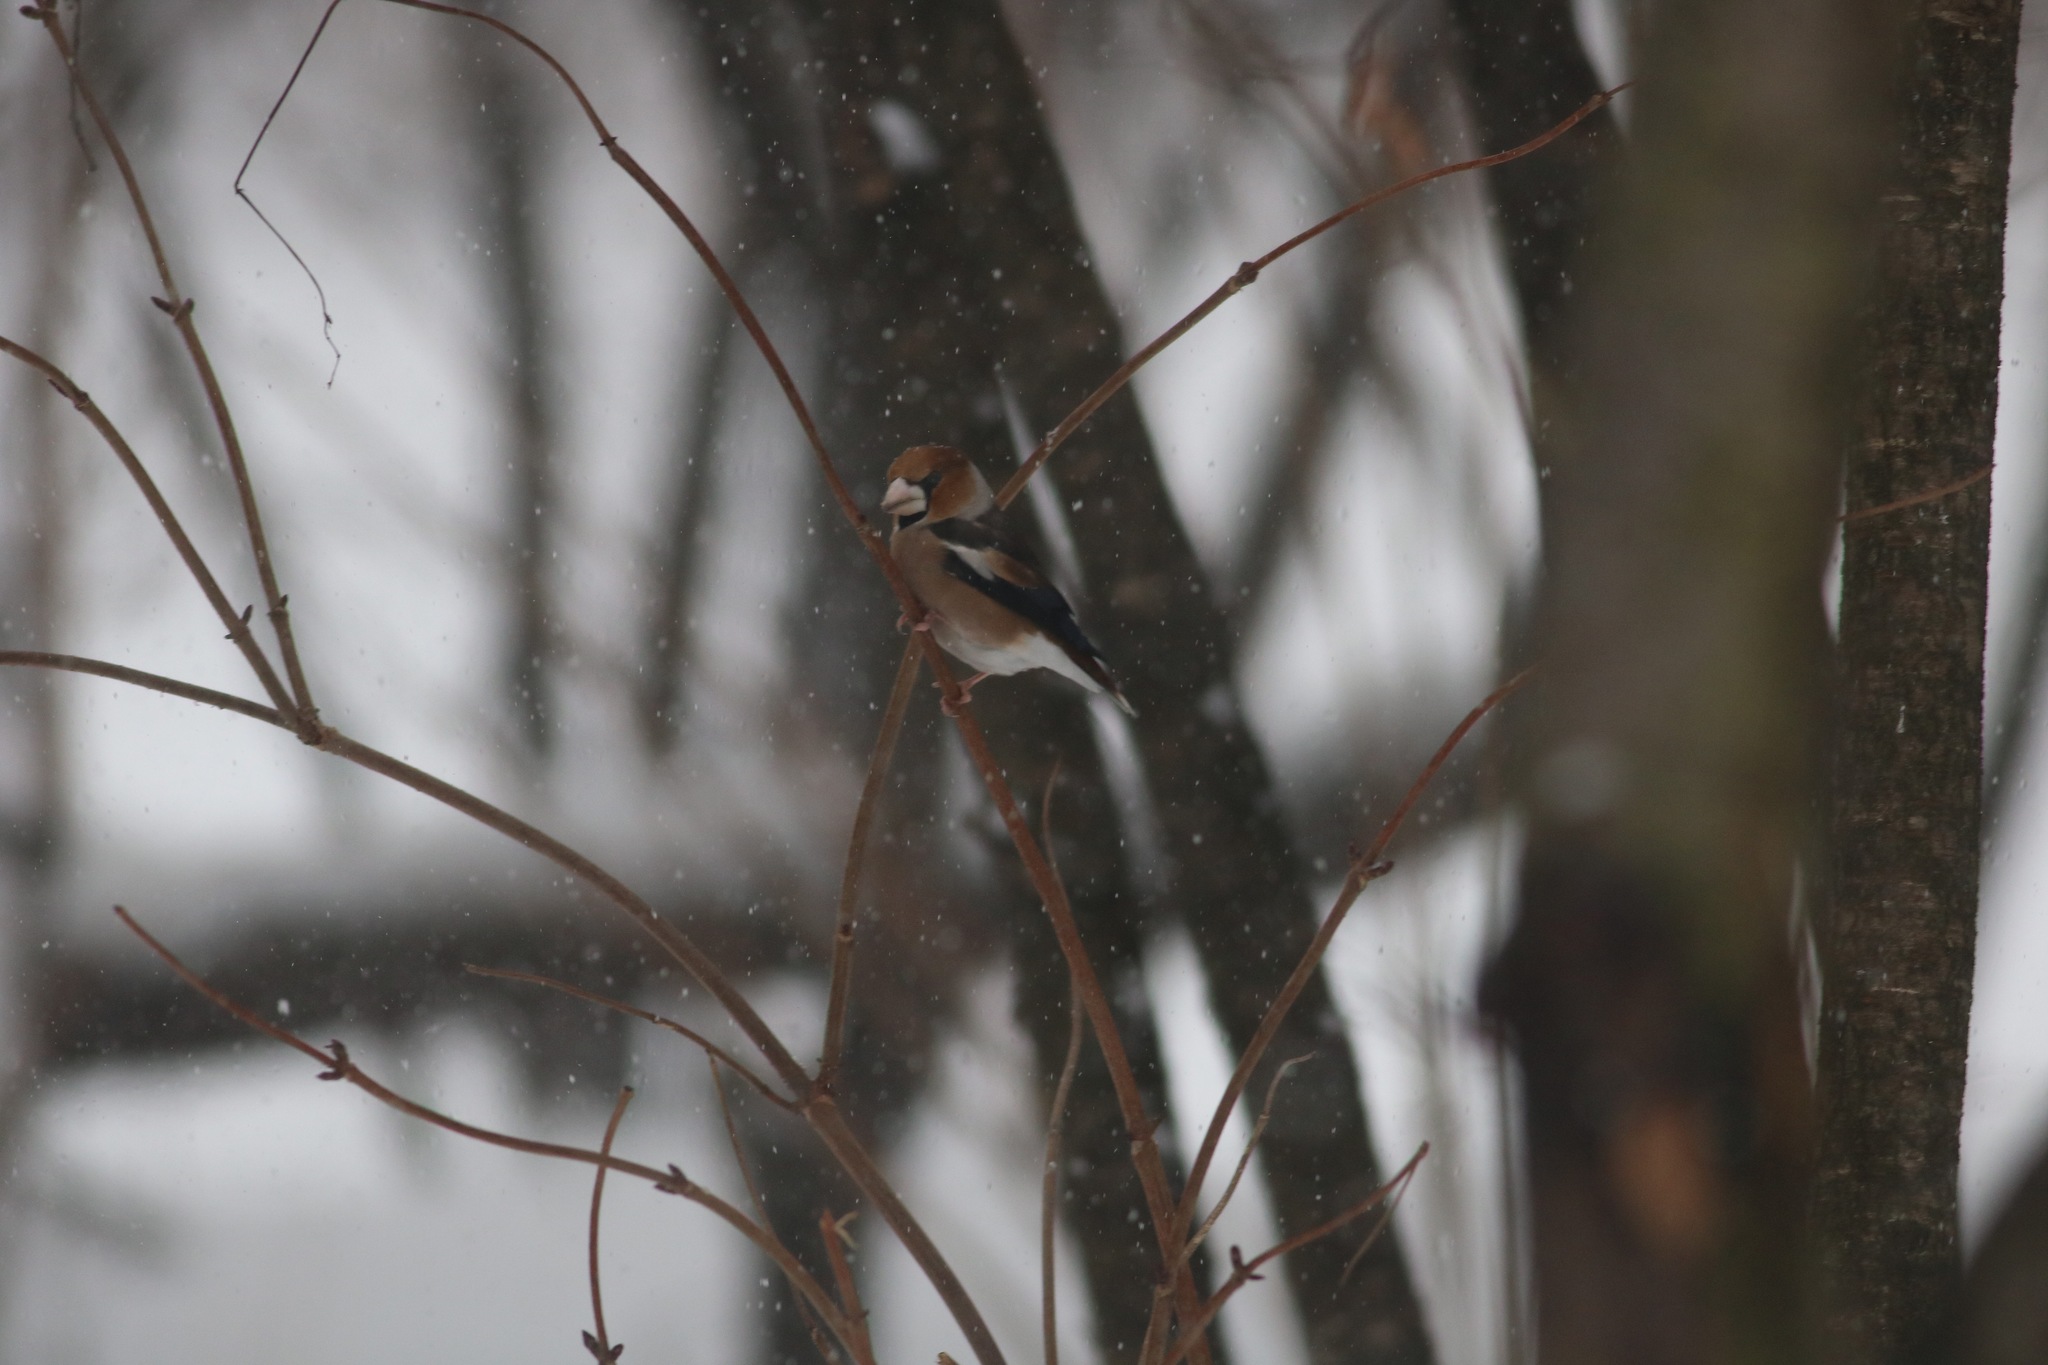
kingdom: Animalia
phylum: Chordata
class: Aves
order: Passeriformes
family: Fringillidae
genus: Coccothraustes
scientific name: Coccothraustes coccothraustes
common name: Hawfinch
